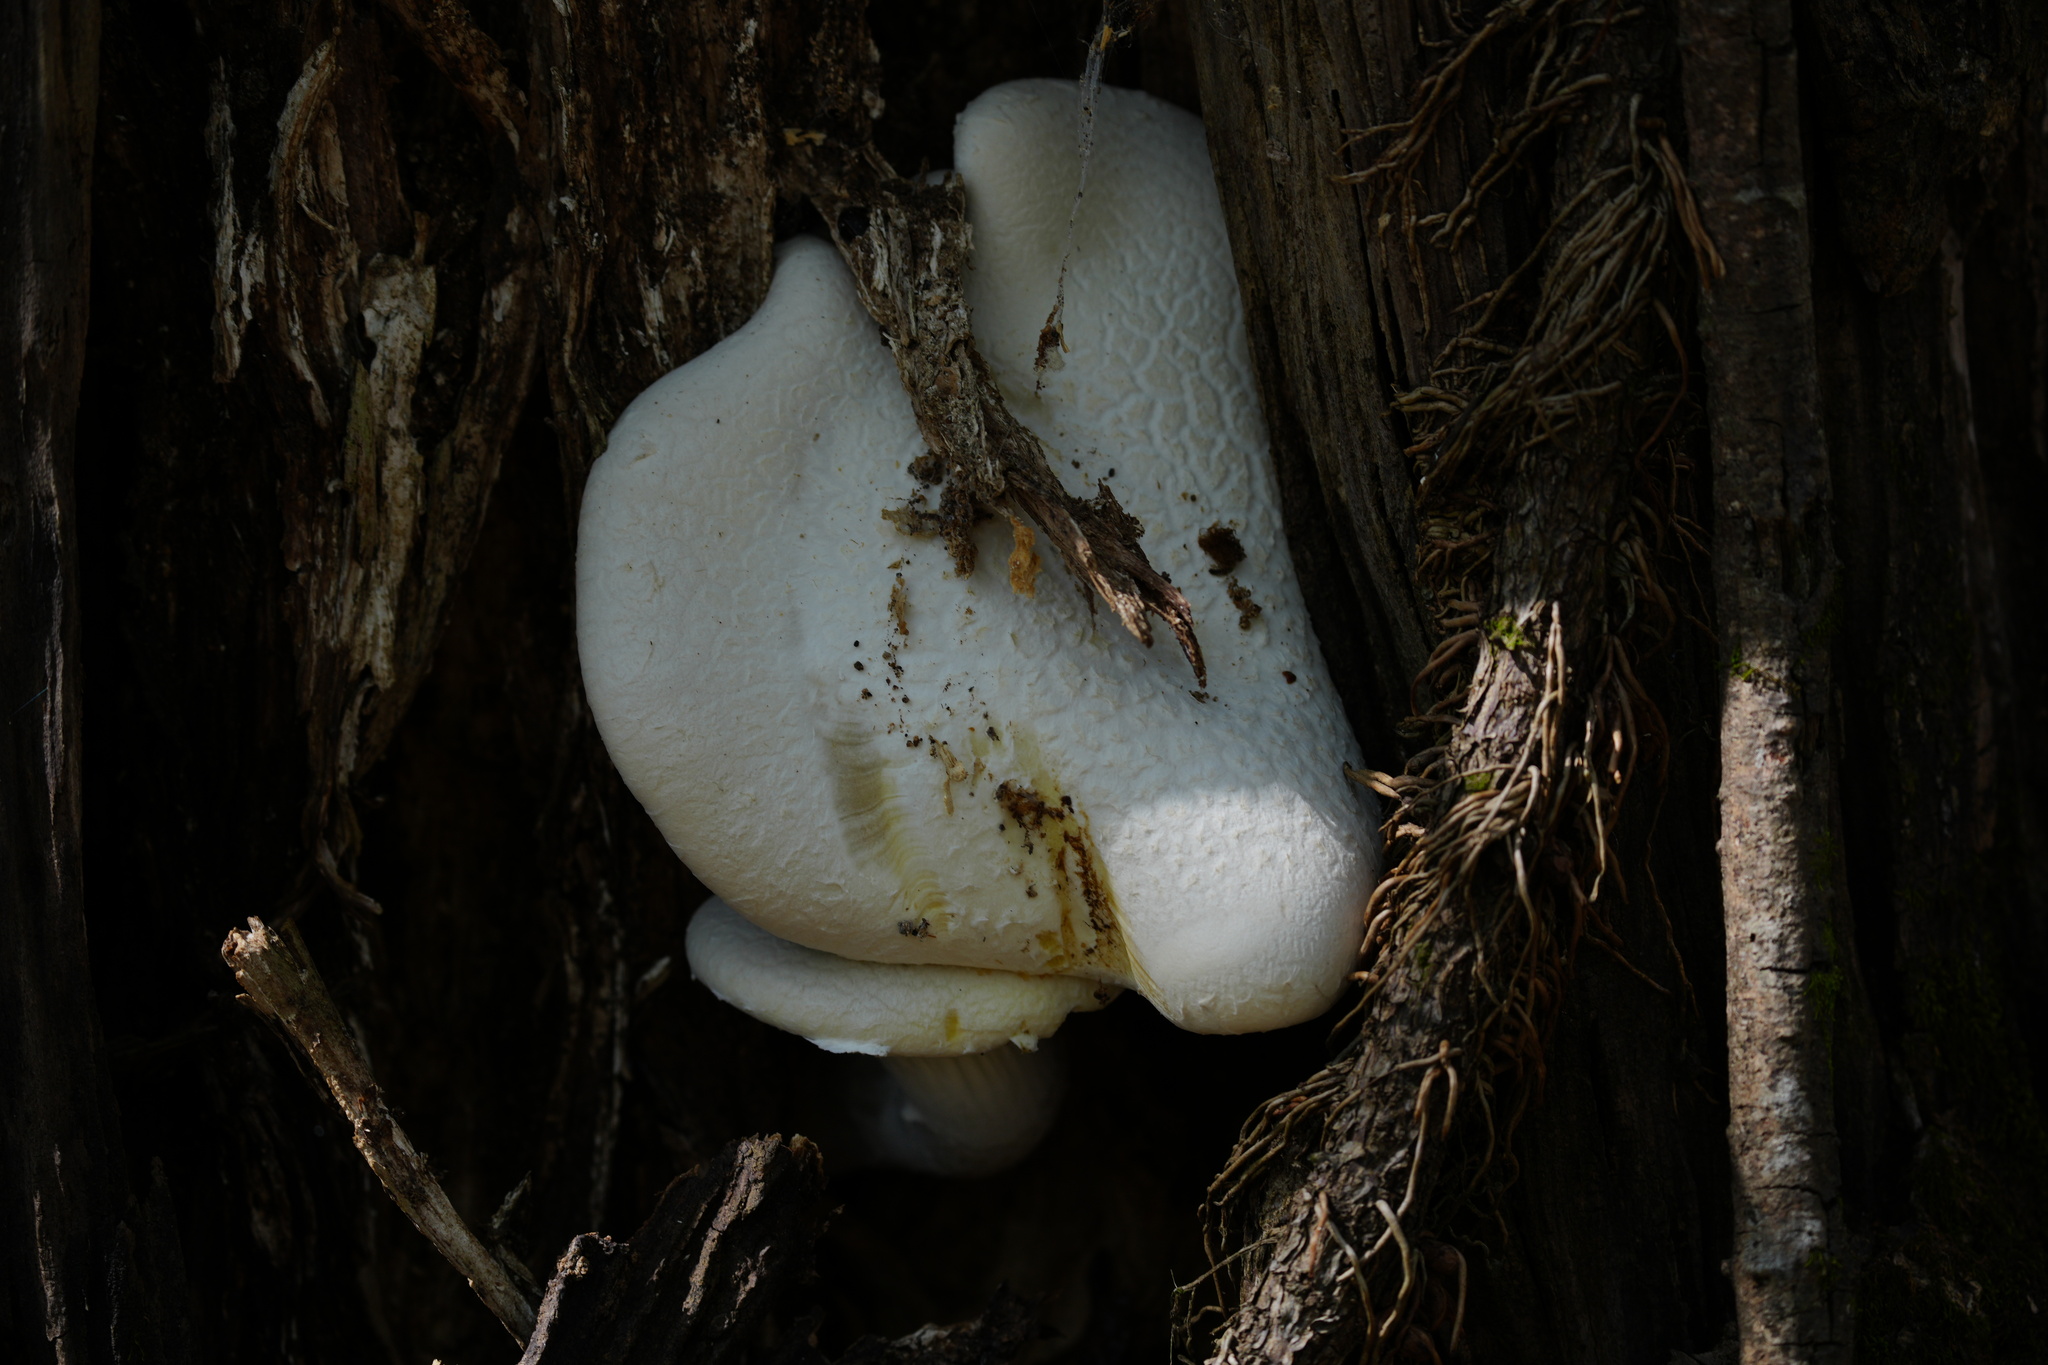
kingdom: Fungi
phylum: Basidiomycota
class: Agaricomycetes
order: Polyporales
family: Polyporaceae
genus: Lentinus
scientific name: Lentinus levis
